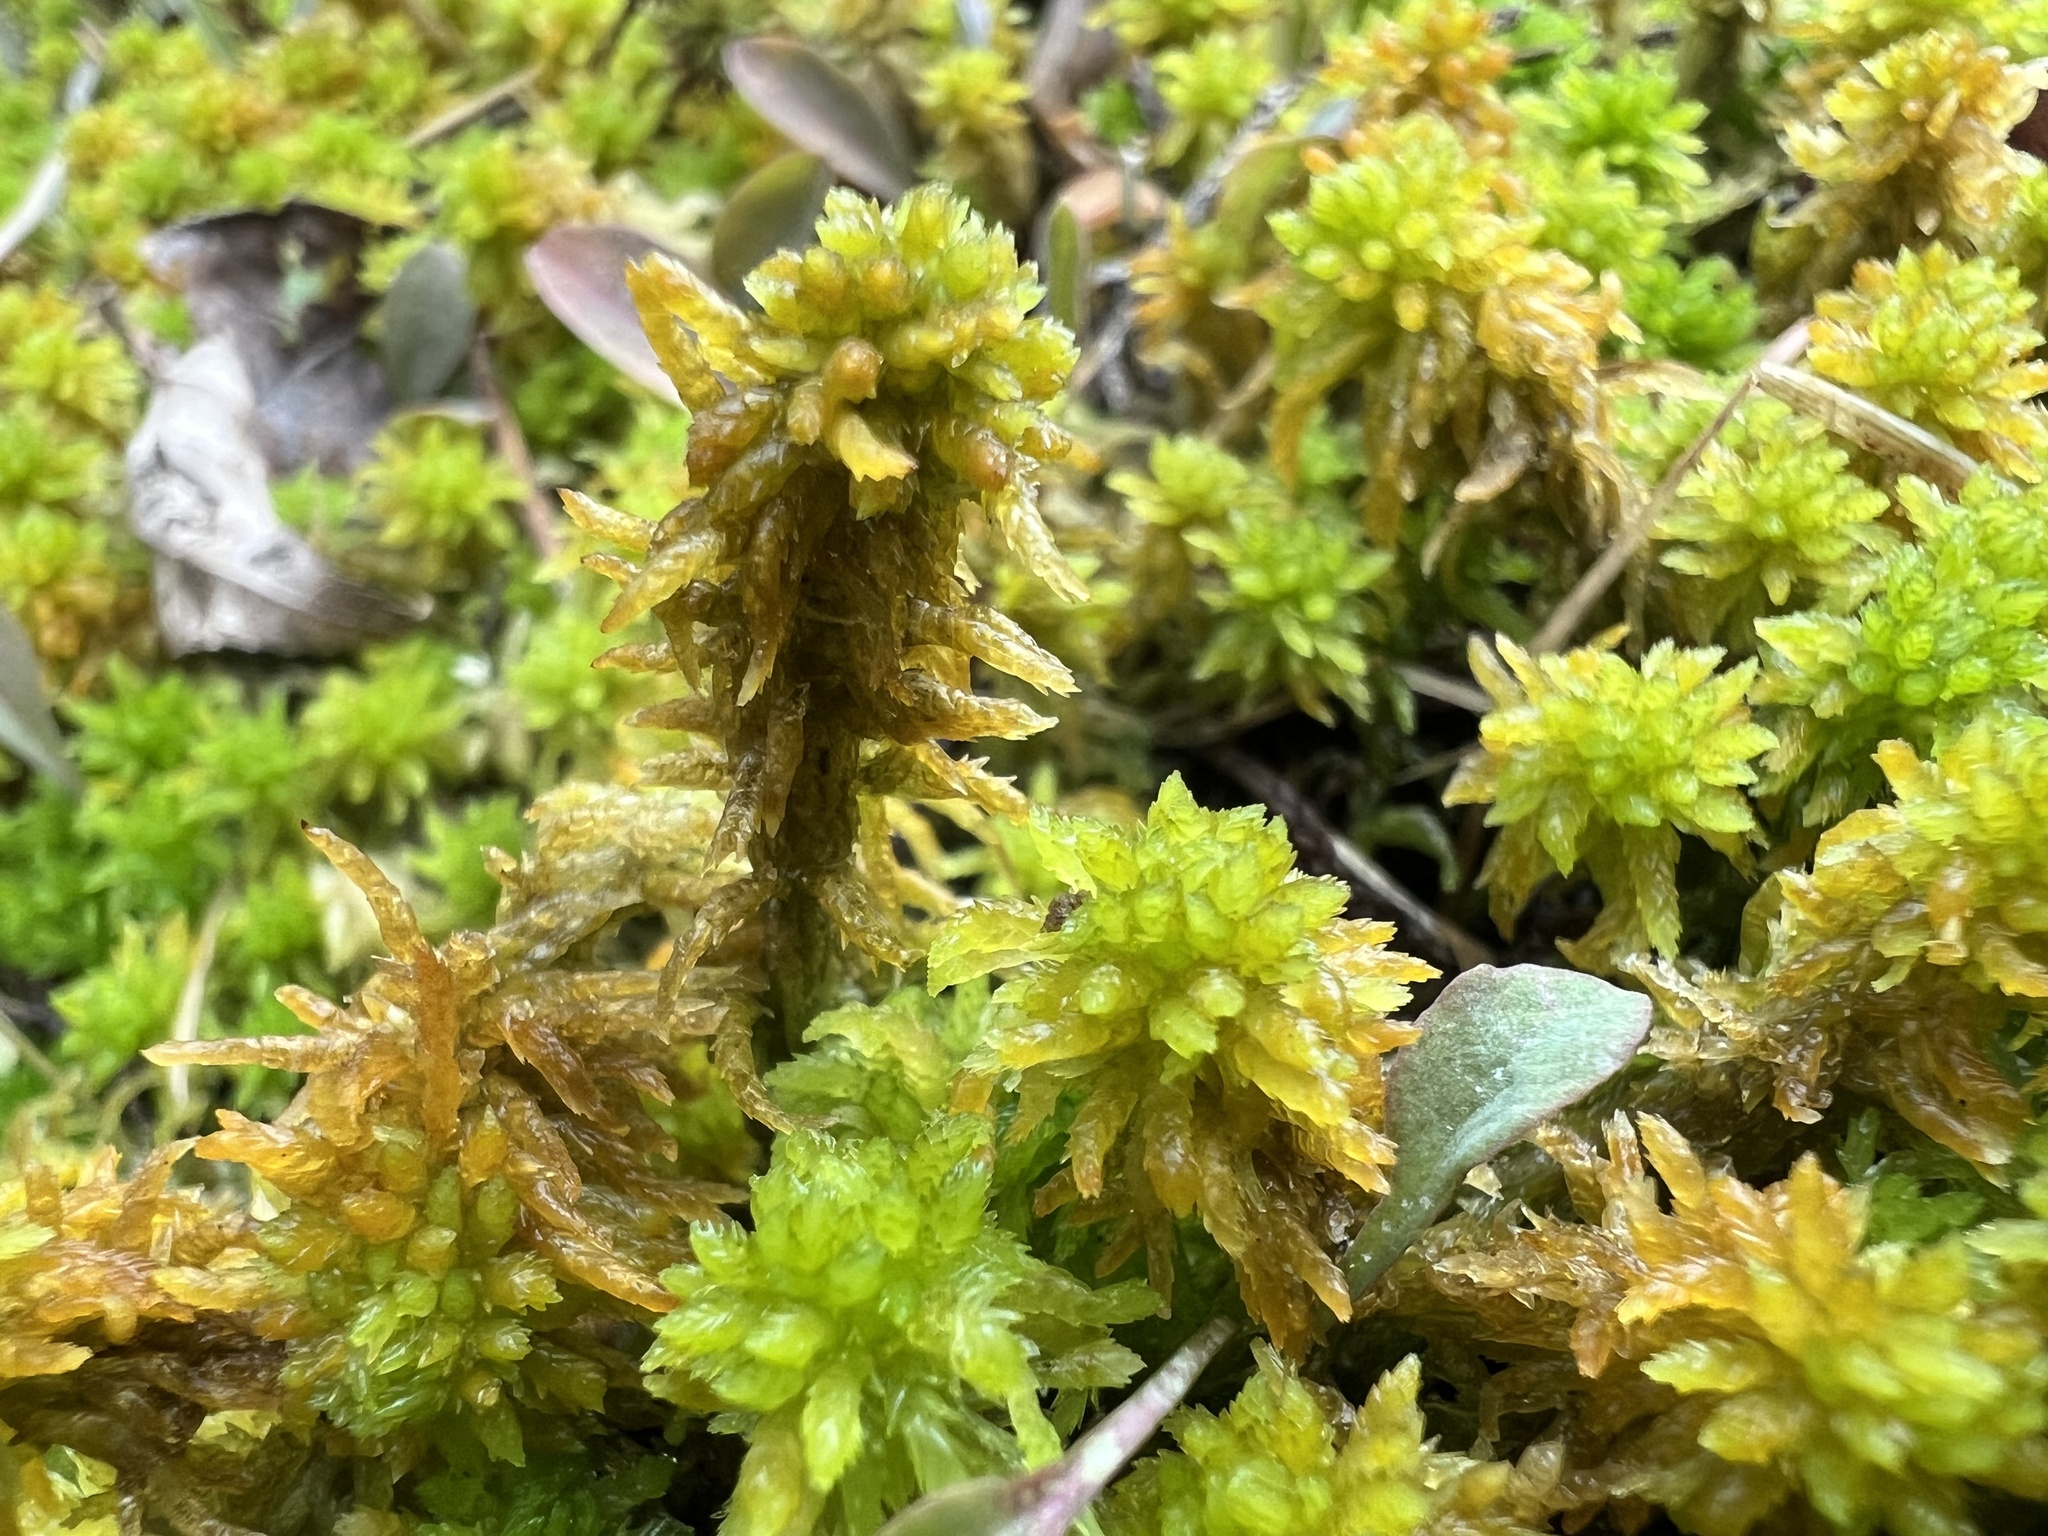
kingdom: Plantae
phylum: Bryophyta
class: Sphagnopsida
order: Sphagnales
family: Sphagnaceae
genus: Sphagnum
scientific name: Sphagnum missouricum
